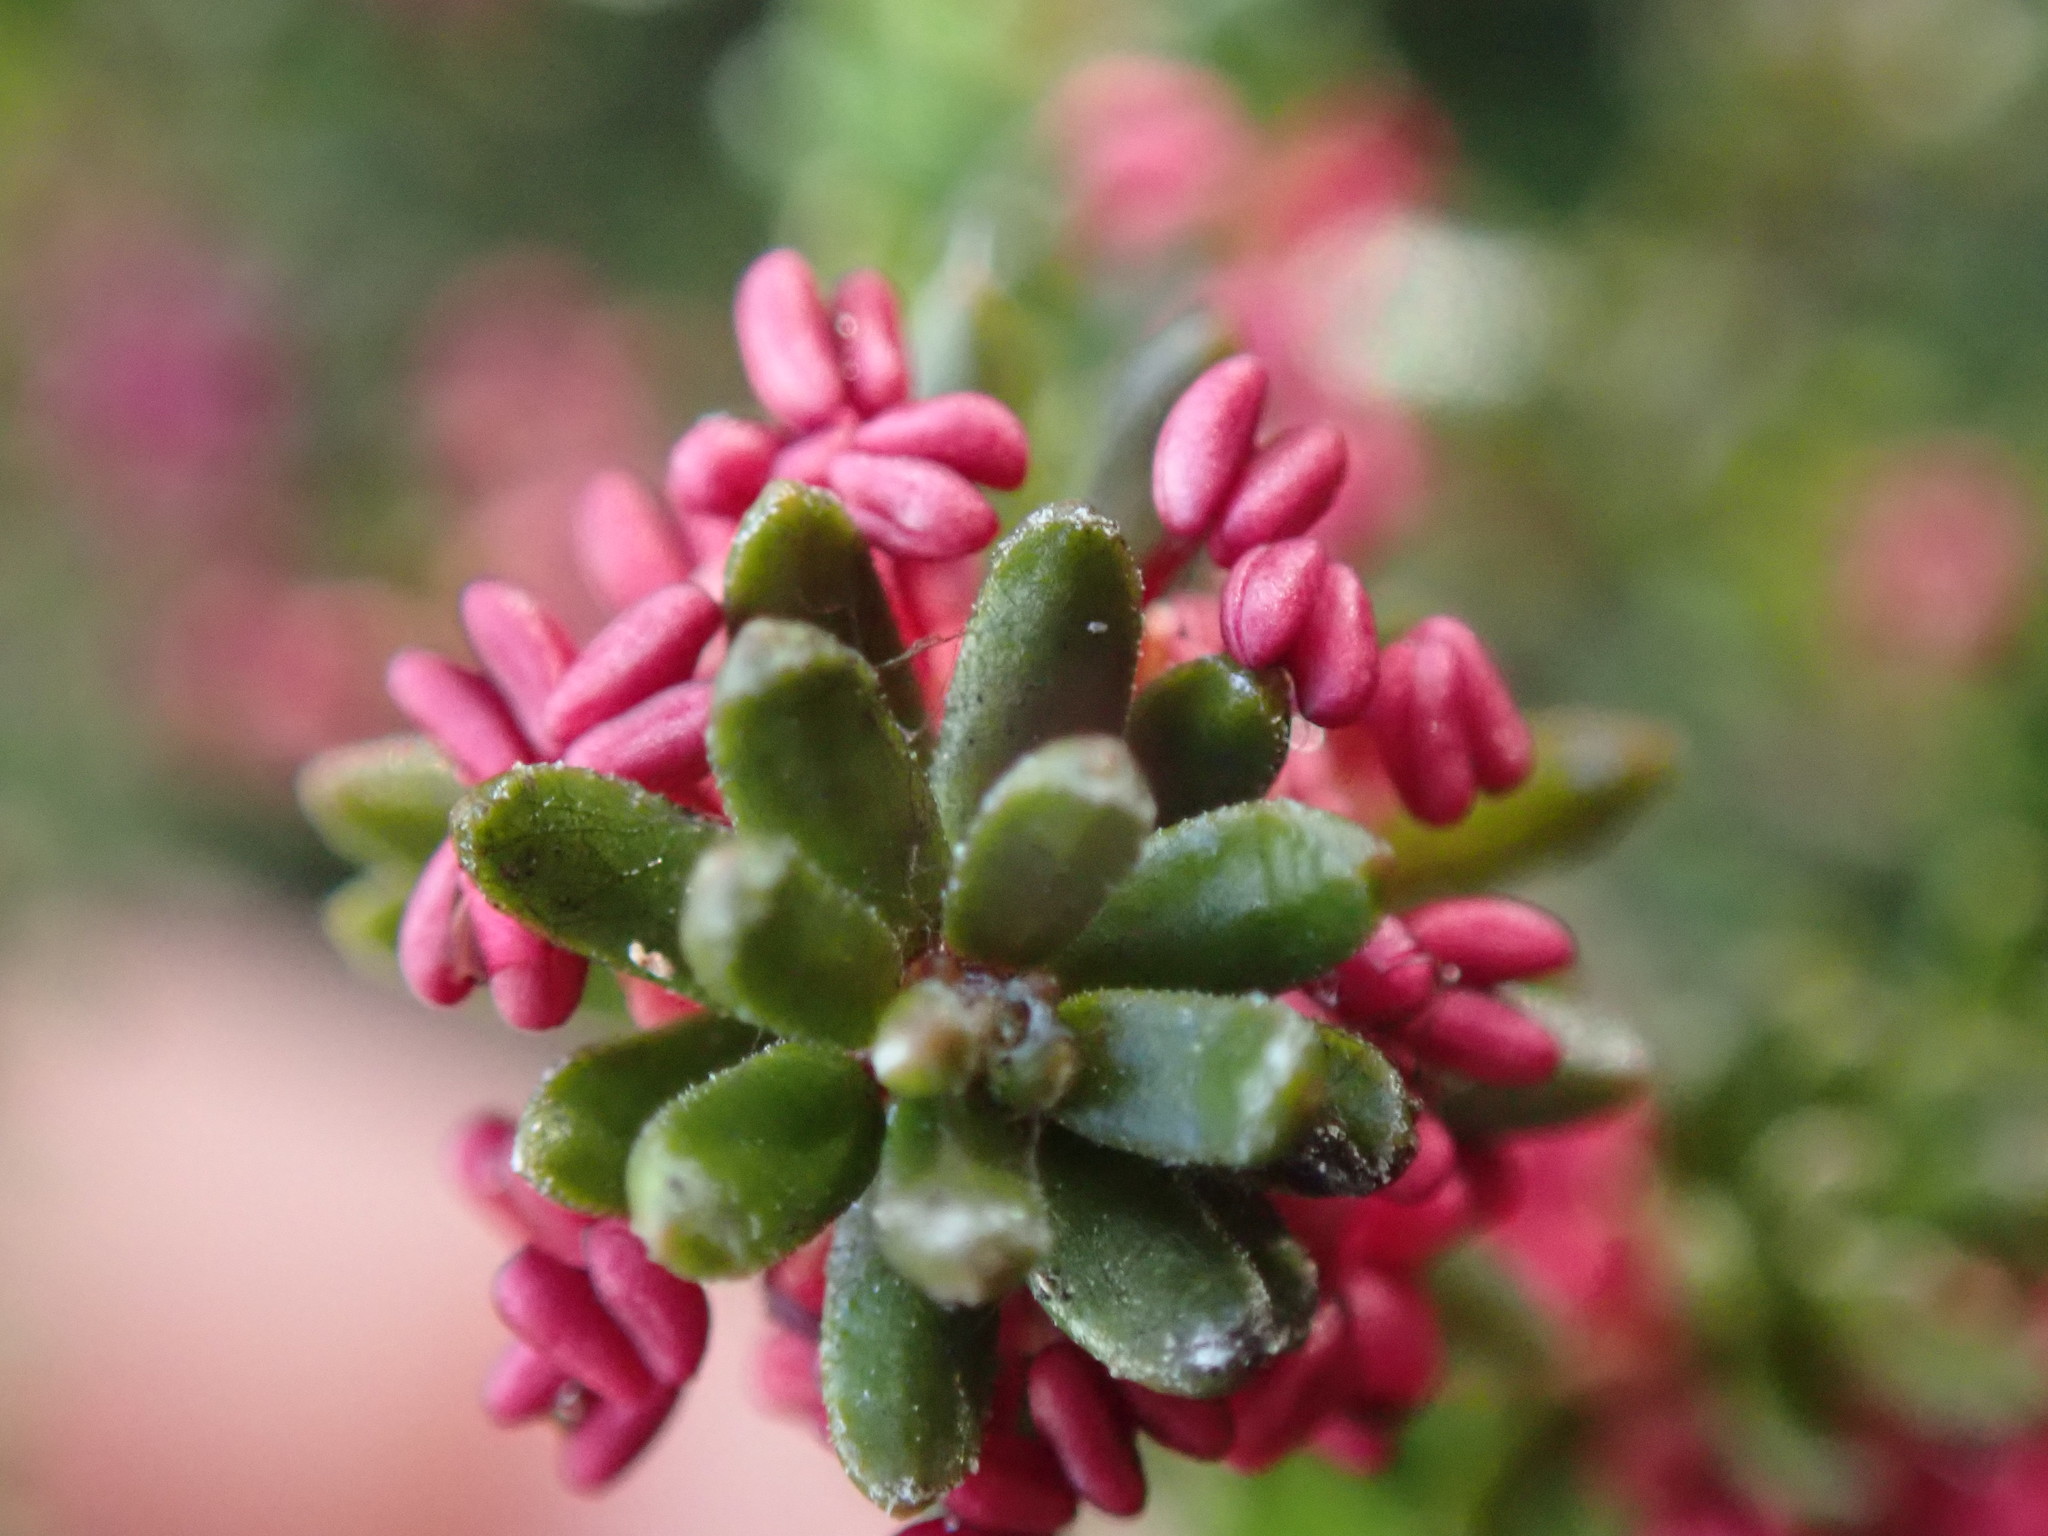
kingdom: Plantae
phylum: Tracheophyta
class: Magnoliopsida
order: Ericales
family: Ericaceae
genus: Empetrum
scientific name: Empetrum nigrum
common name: Black crowberry
